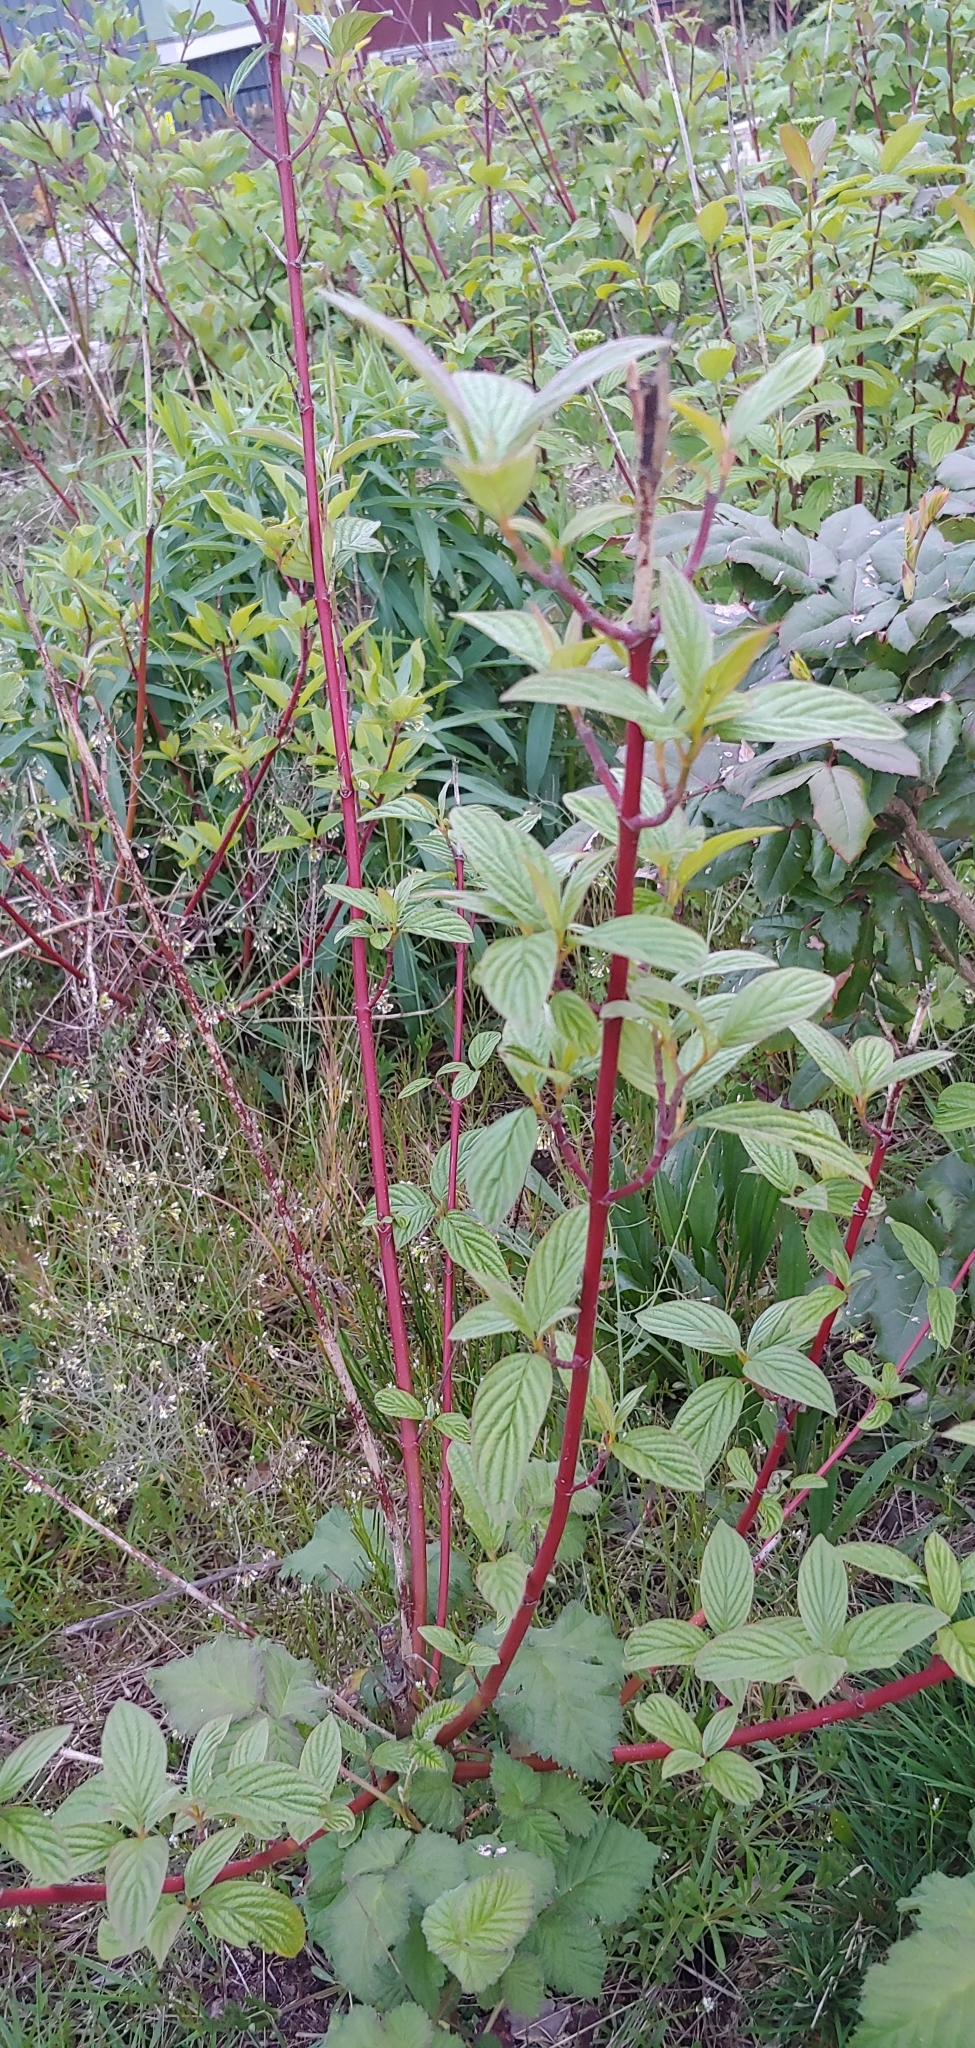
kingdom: Plantae
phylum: Tracheophyta
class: Magnoliopsida
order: Cornales
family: Cornaceae
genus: Cornus
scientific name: Cornus sericea
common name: Red-osier dogwood
